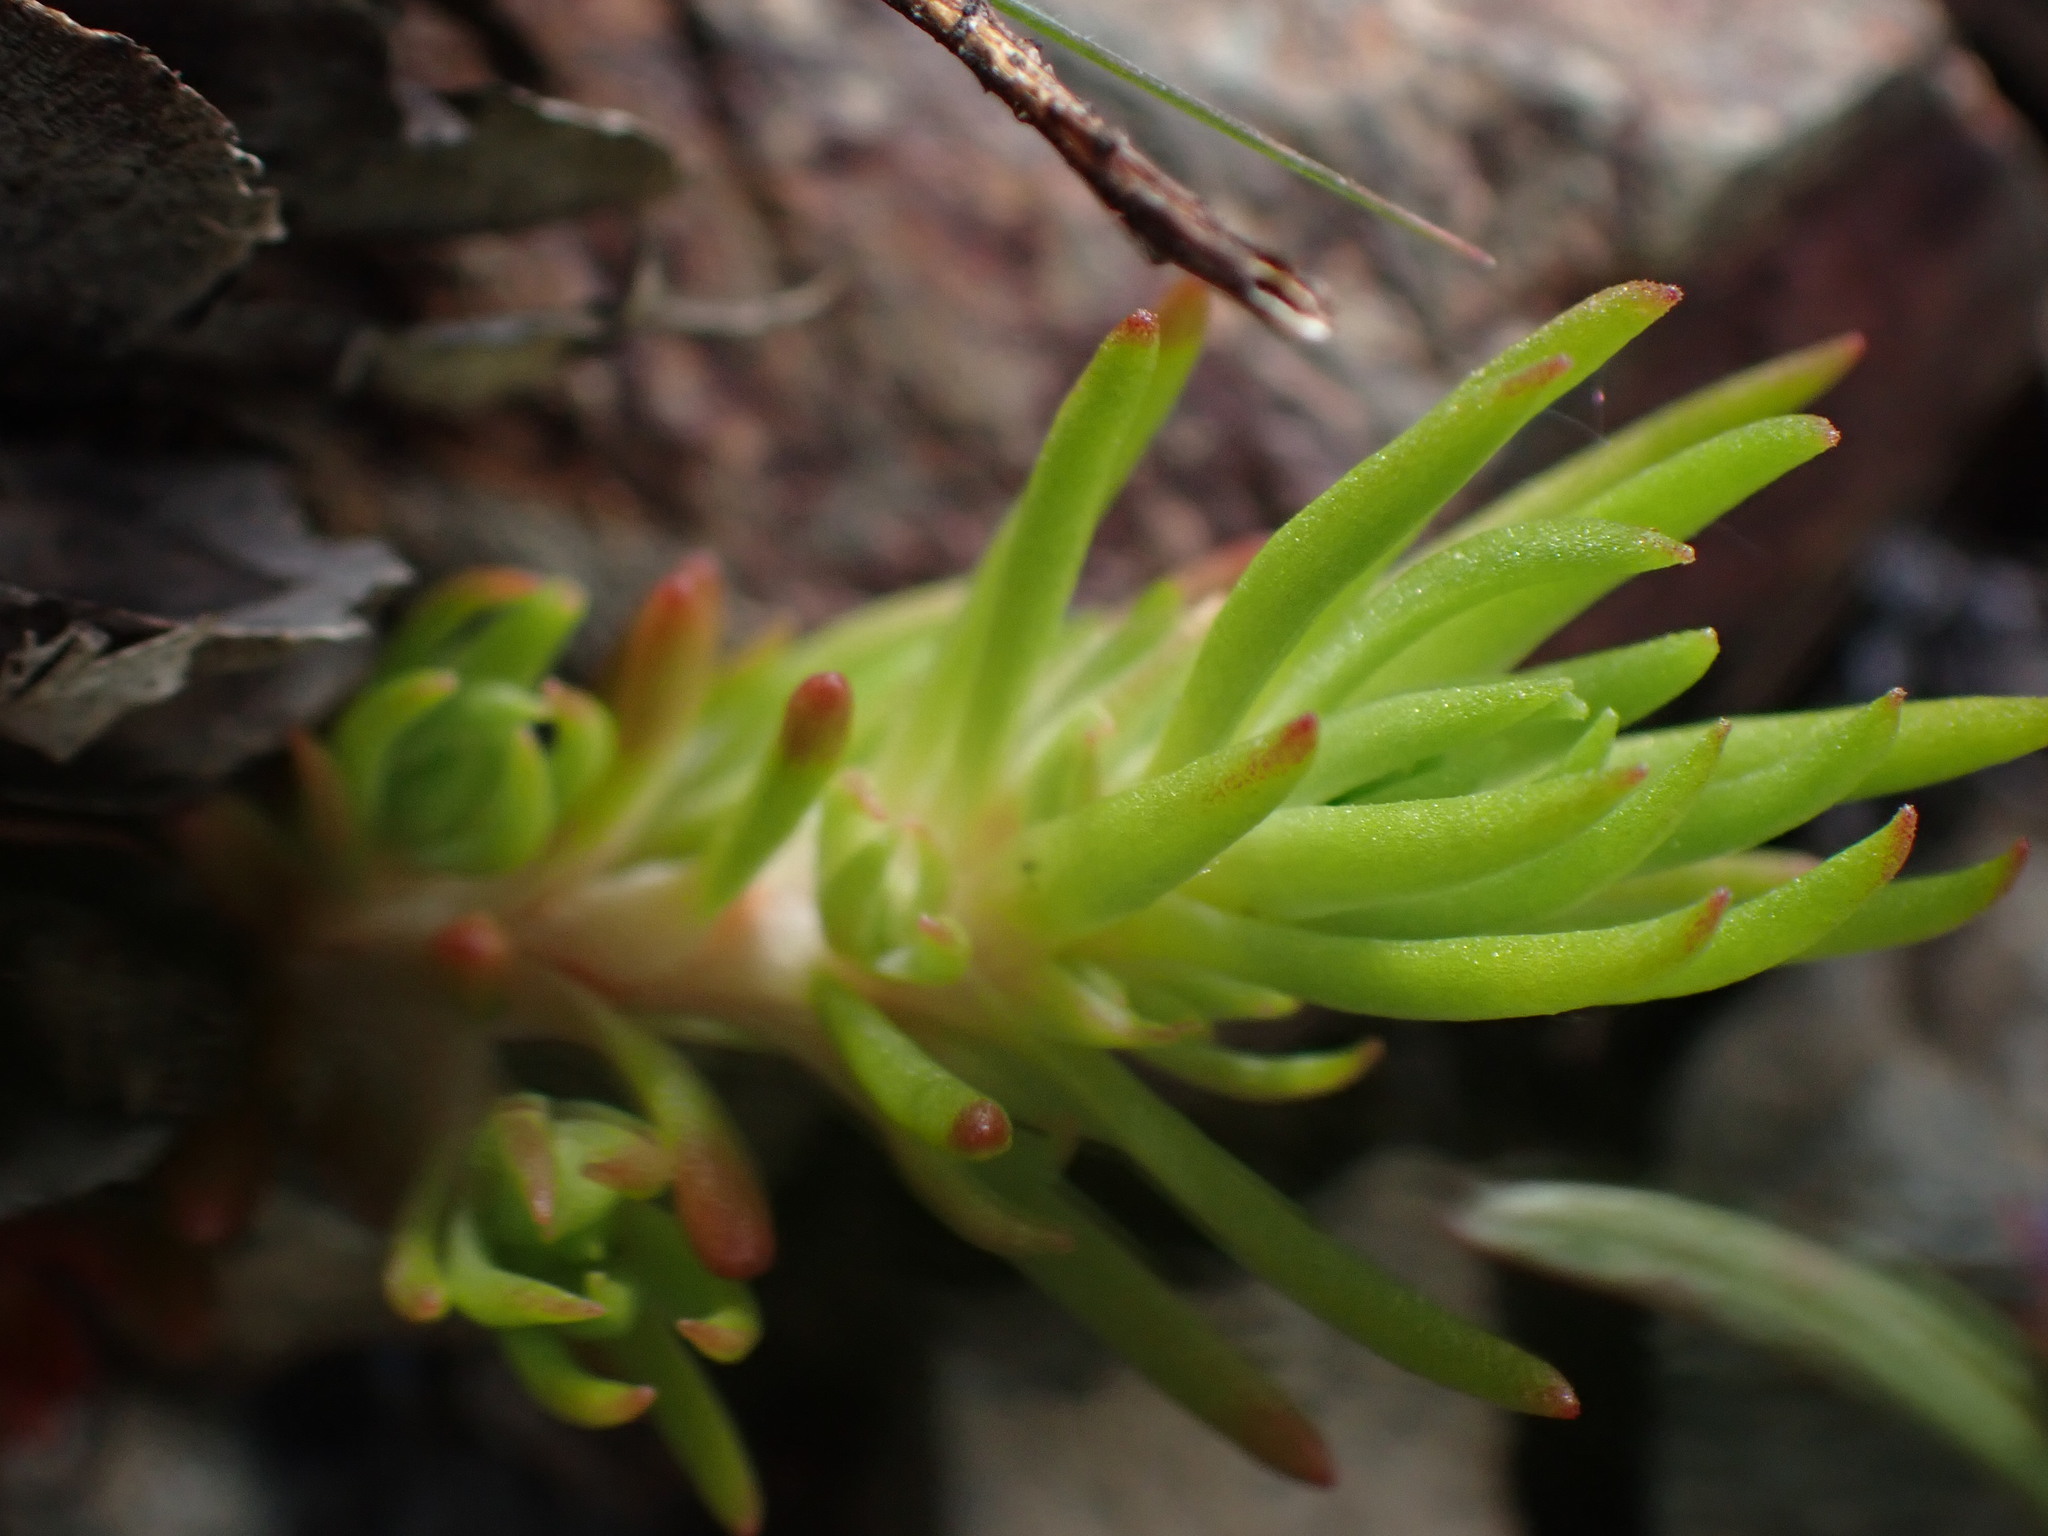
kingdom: Plantae
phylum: Tracheophyta
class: Magnoliopsida
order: Saxifragales
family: Crassulaceae
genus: Sedum
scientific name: Sedum stenopetalum
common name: Narrow-petaled stonecrop
